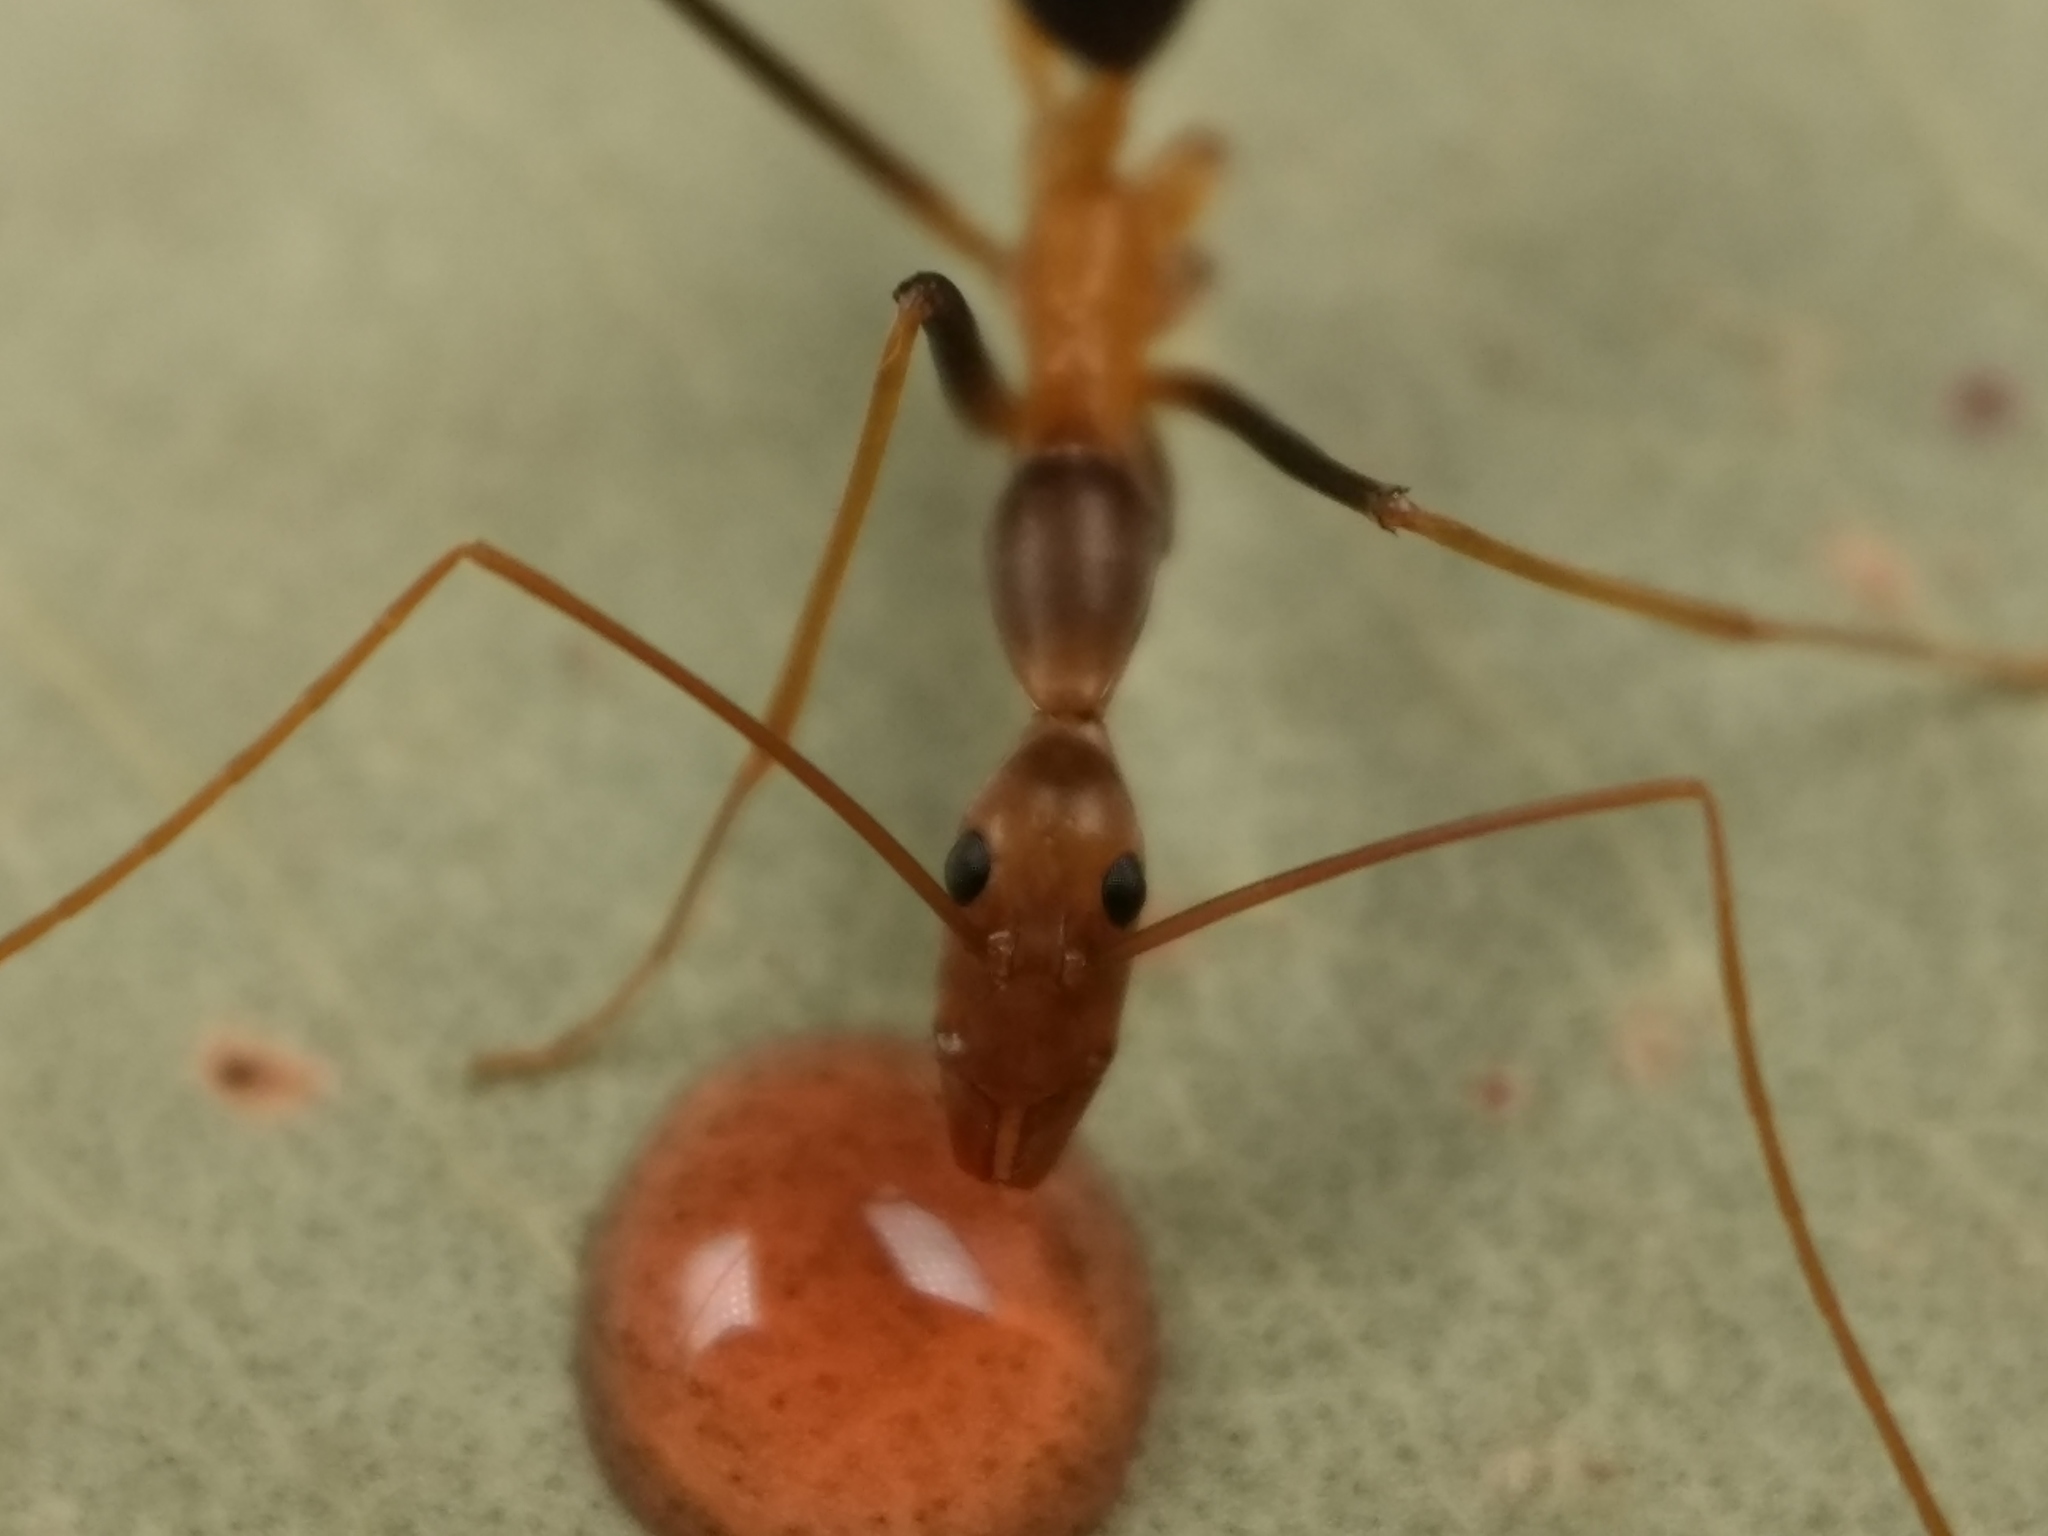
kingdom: Animalia
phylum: Arthropoda
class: Insecta
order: Hymenoptera
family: Formicidae
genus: Leptomyrmex
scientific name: Leptomyrmex rothneyi
